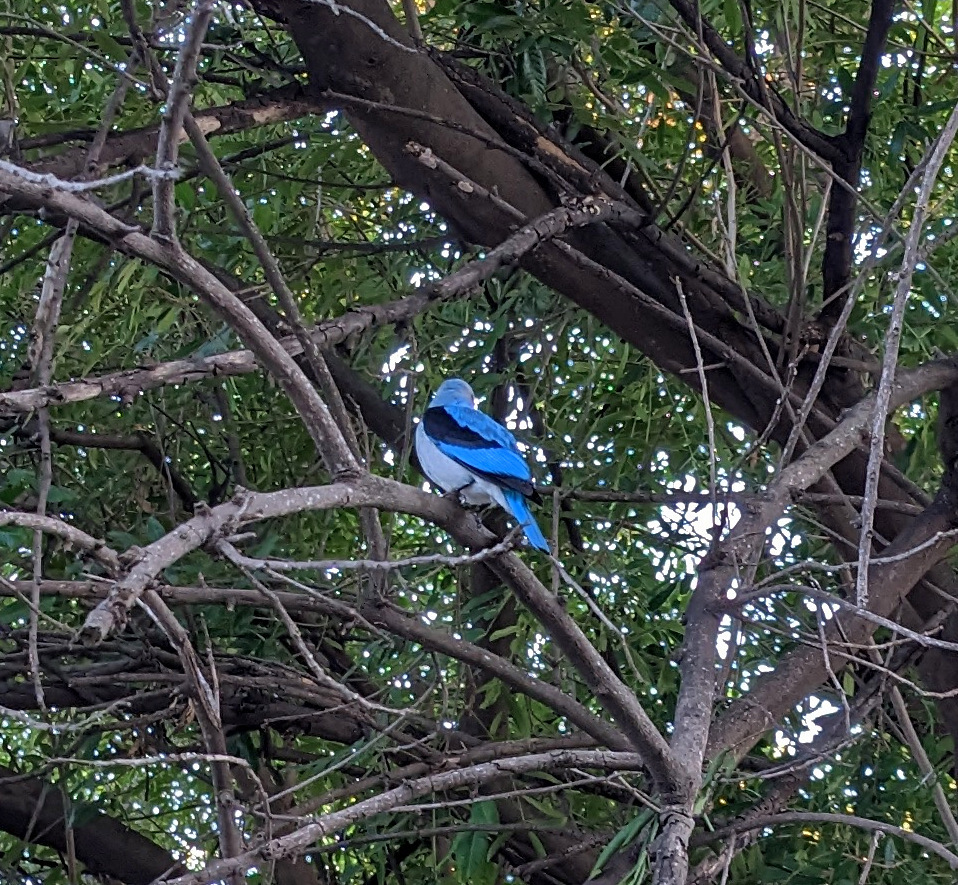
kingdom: Animalia
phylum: Chordata
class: Aves
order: Coraciiformes
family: Alcedinidae
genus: Halcyon
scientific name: Halcyon senegalensis
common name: Woodland kingfisher
